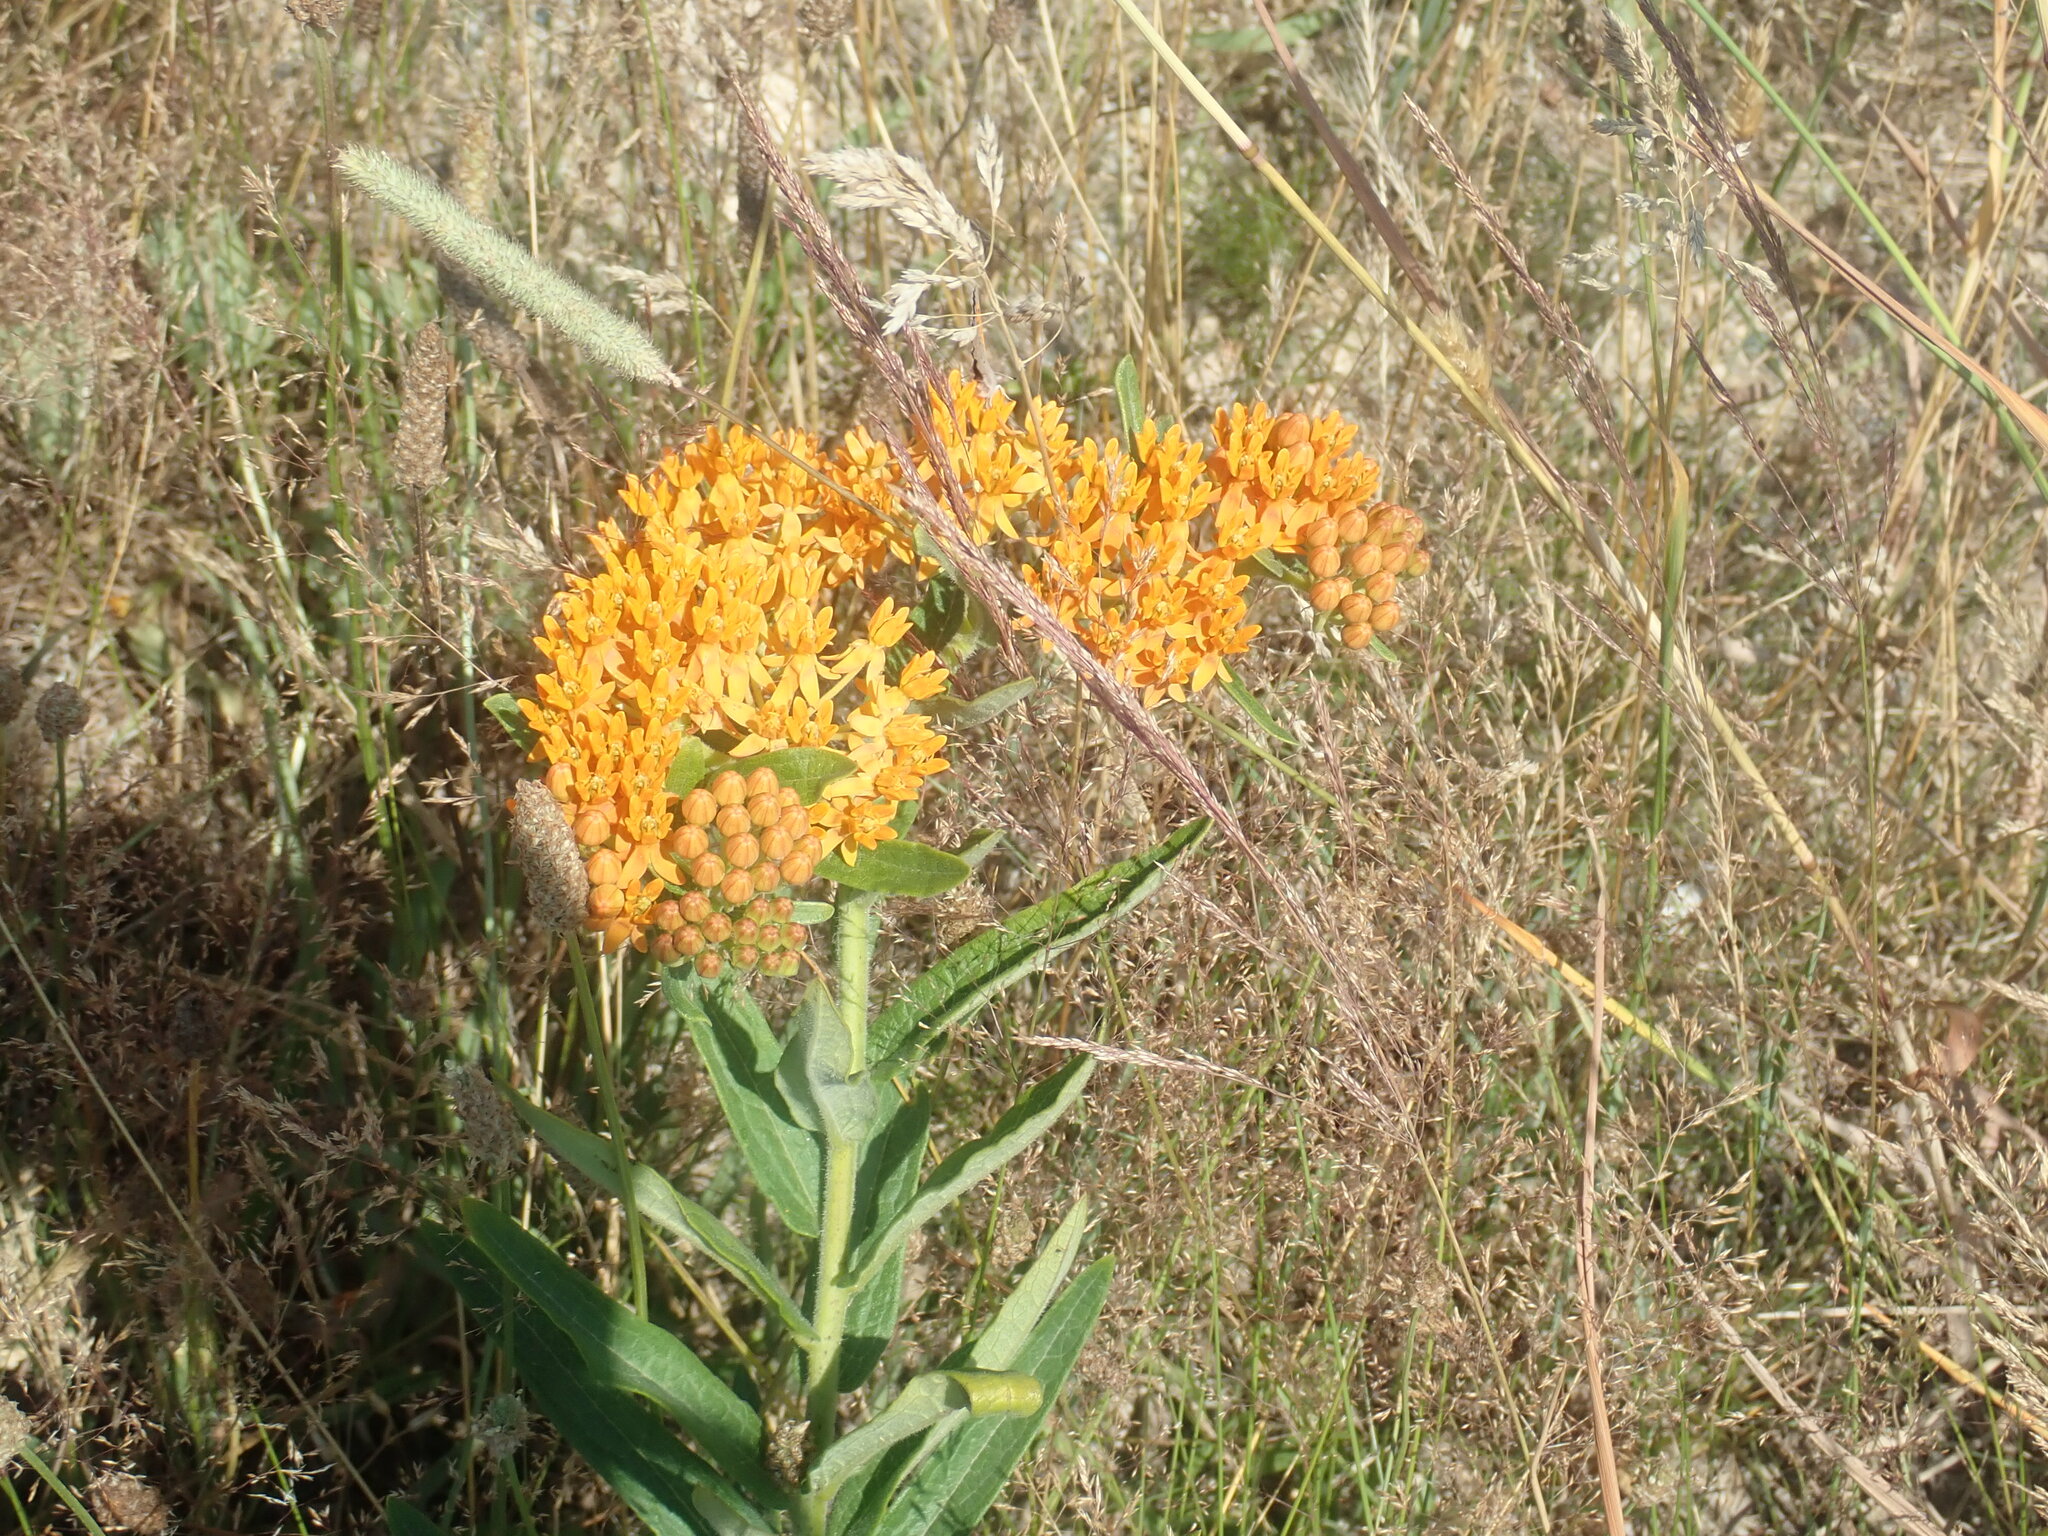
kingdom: Plantae
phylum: Tracheophyta
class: Magnoliopsida
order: Gentianales
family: Apocynaceae
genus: Asclepias
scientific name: Asclepias tuberosa
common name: Butterfly milkweed
